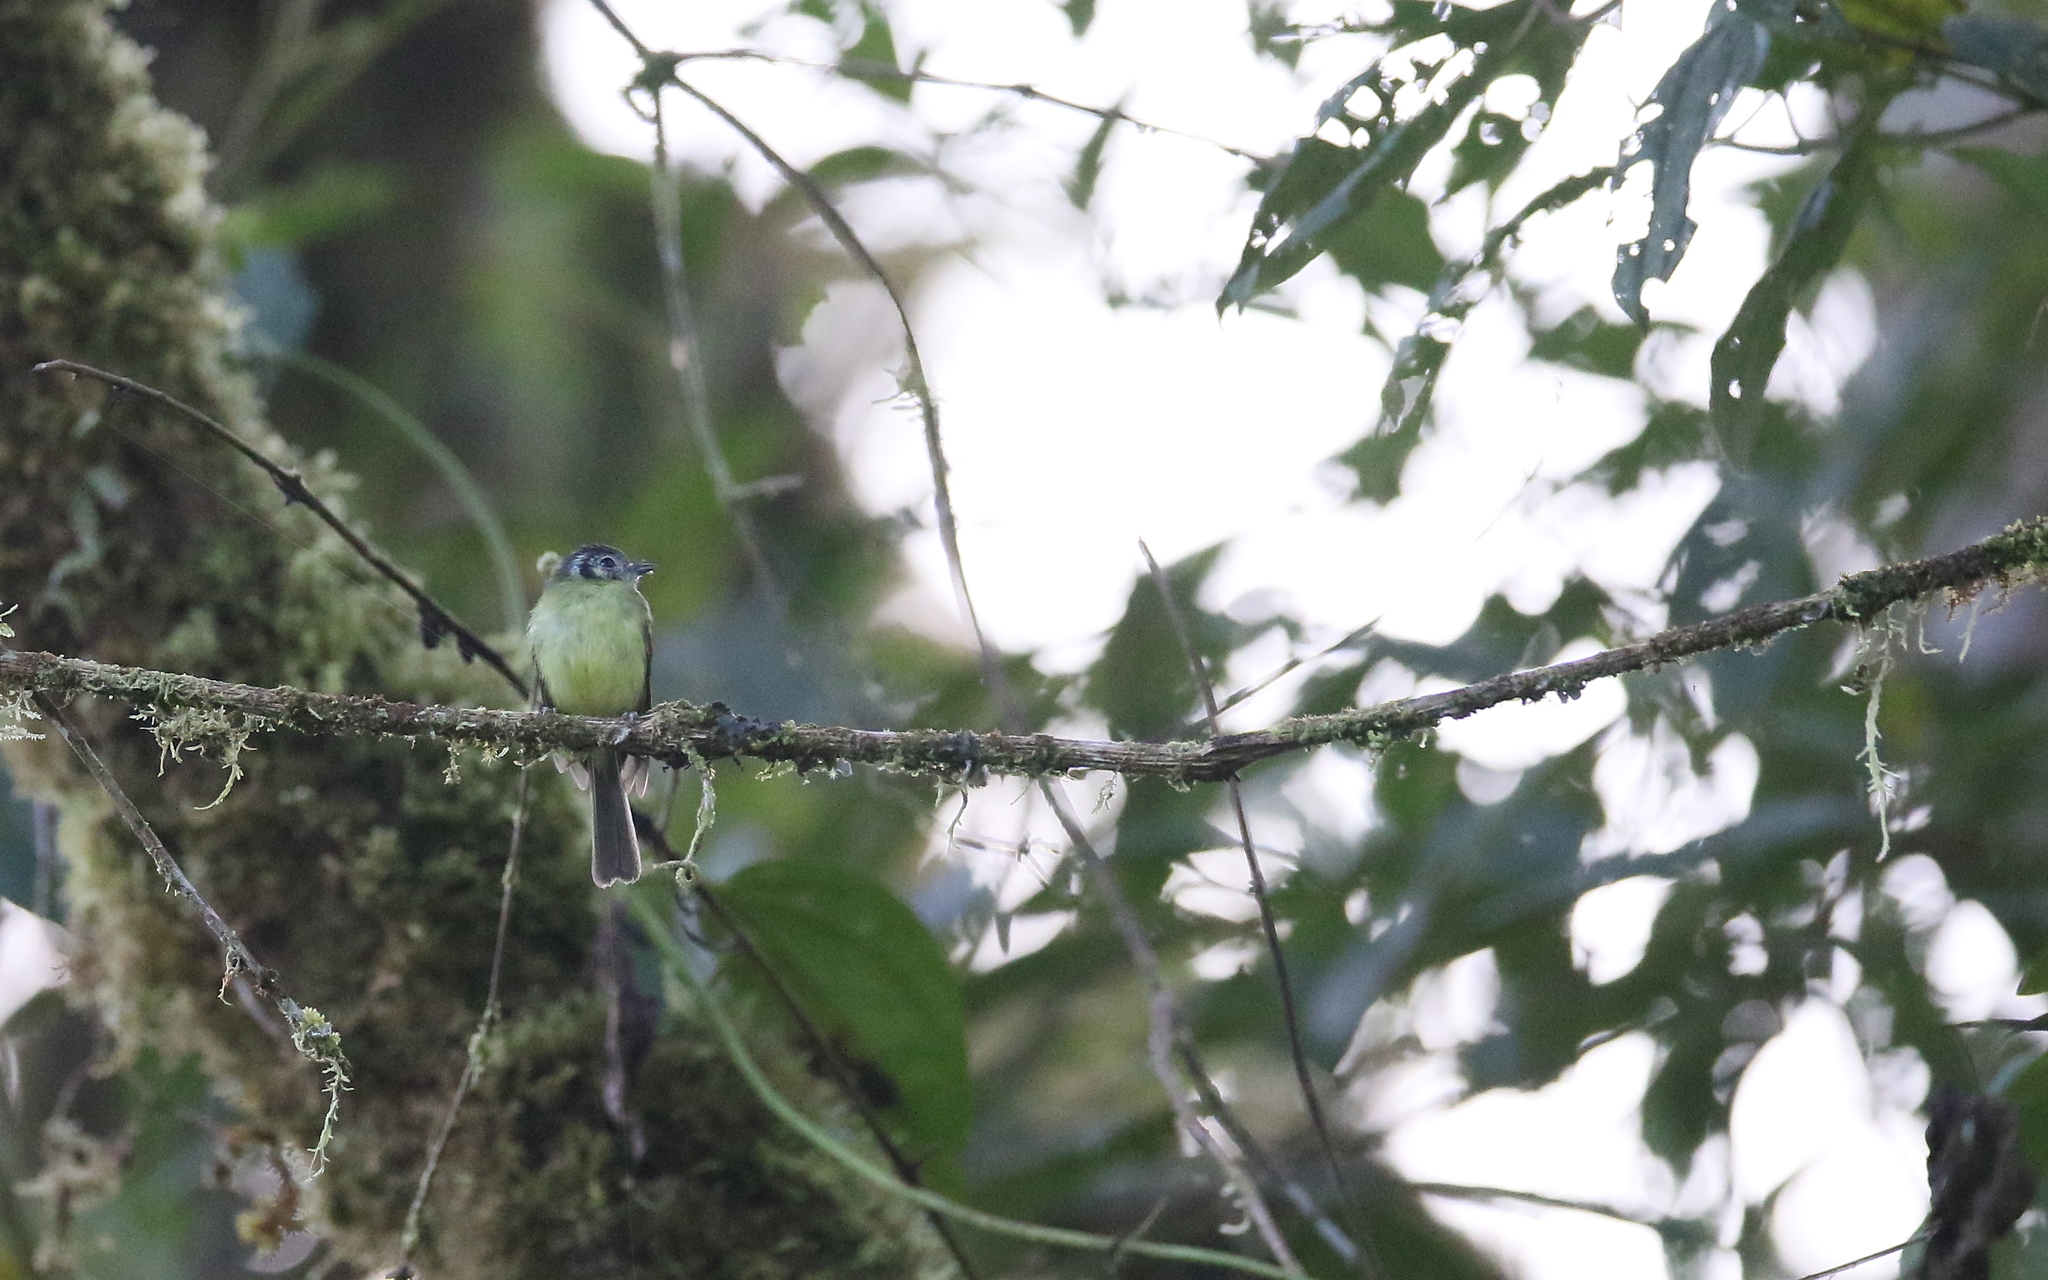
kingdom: Animalia
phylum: Chordata
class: Aves
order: Passeriformes
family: Tyrannidae
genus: Phylloscartes
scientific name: Phylloscartes ophthalmicus
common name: Marble-faced bristle-tyrant
